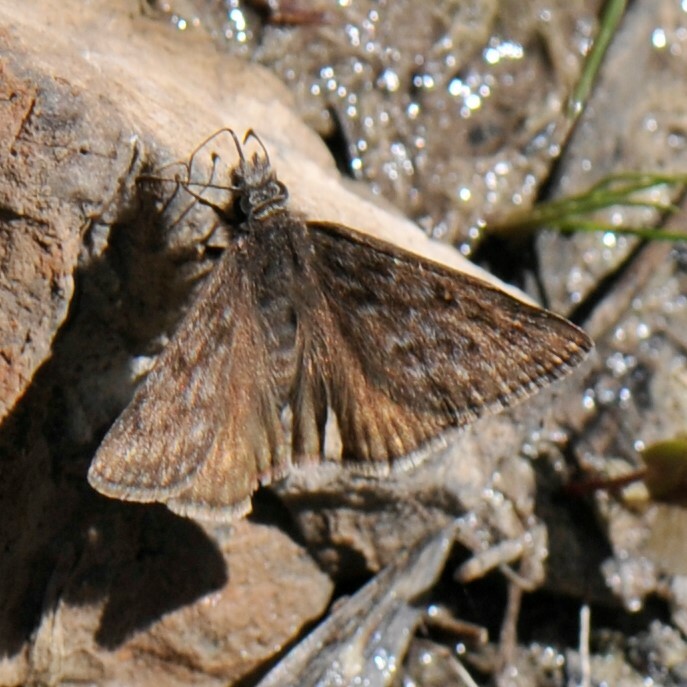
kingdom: Animalia
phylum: Arthropoda
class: Insecta
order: Lepidoptera
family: Hesperiidae
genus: Erynnis
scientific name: Erynnis telemachus
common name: Rocky mountain duskywing
